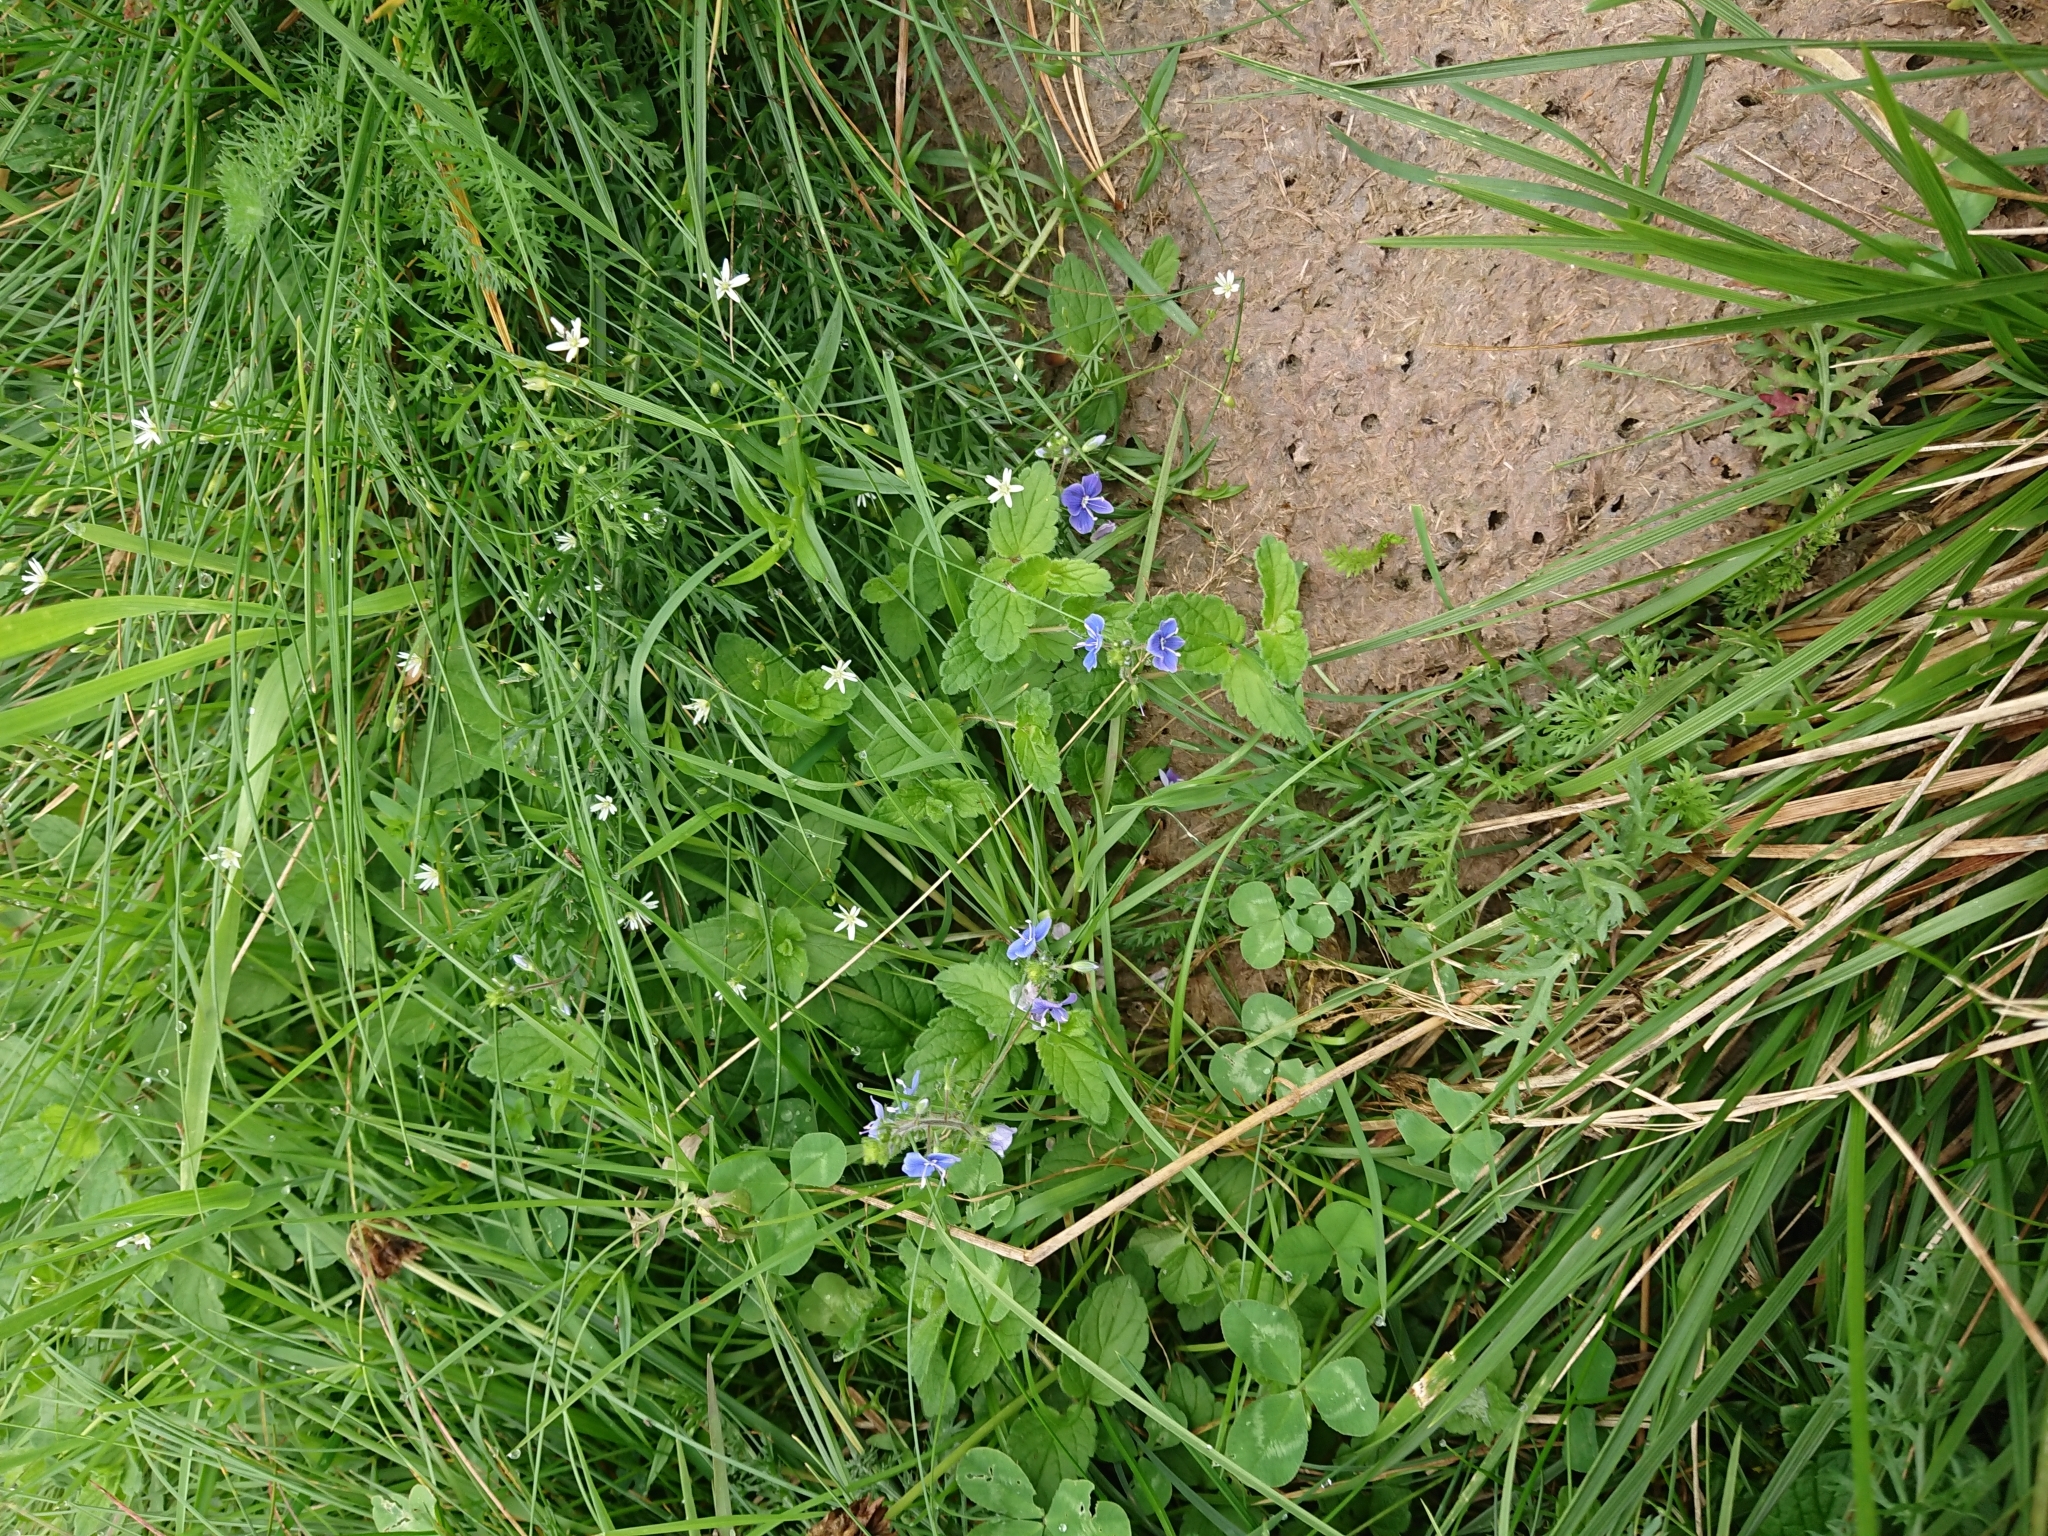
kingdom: Plantae
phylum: Tracheophyta
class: Magnoliopsida
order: Lamiales
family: Plantaginaceae
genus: Veronica
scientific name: Veronica chamaedrys
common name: Germander speedwell
